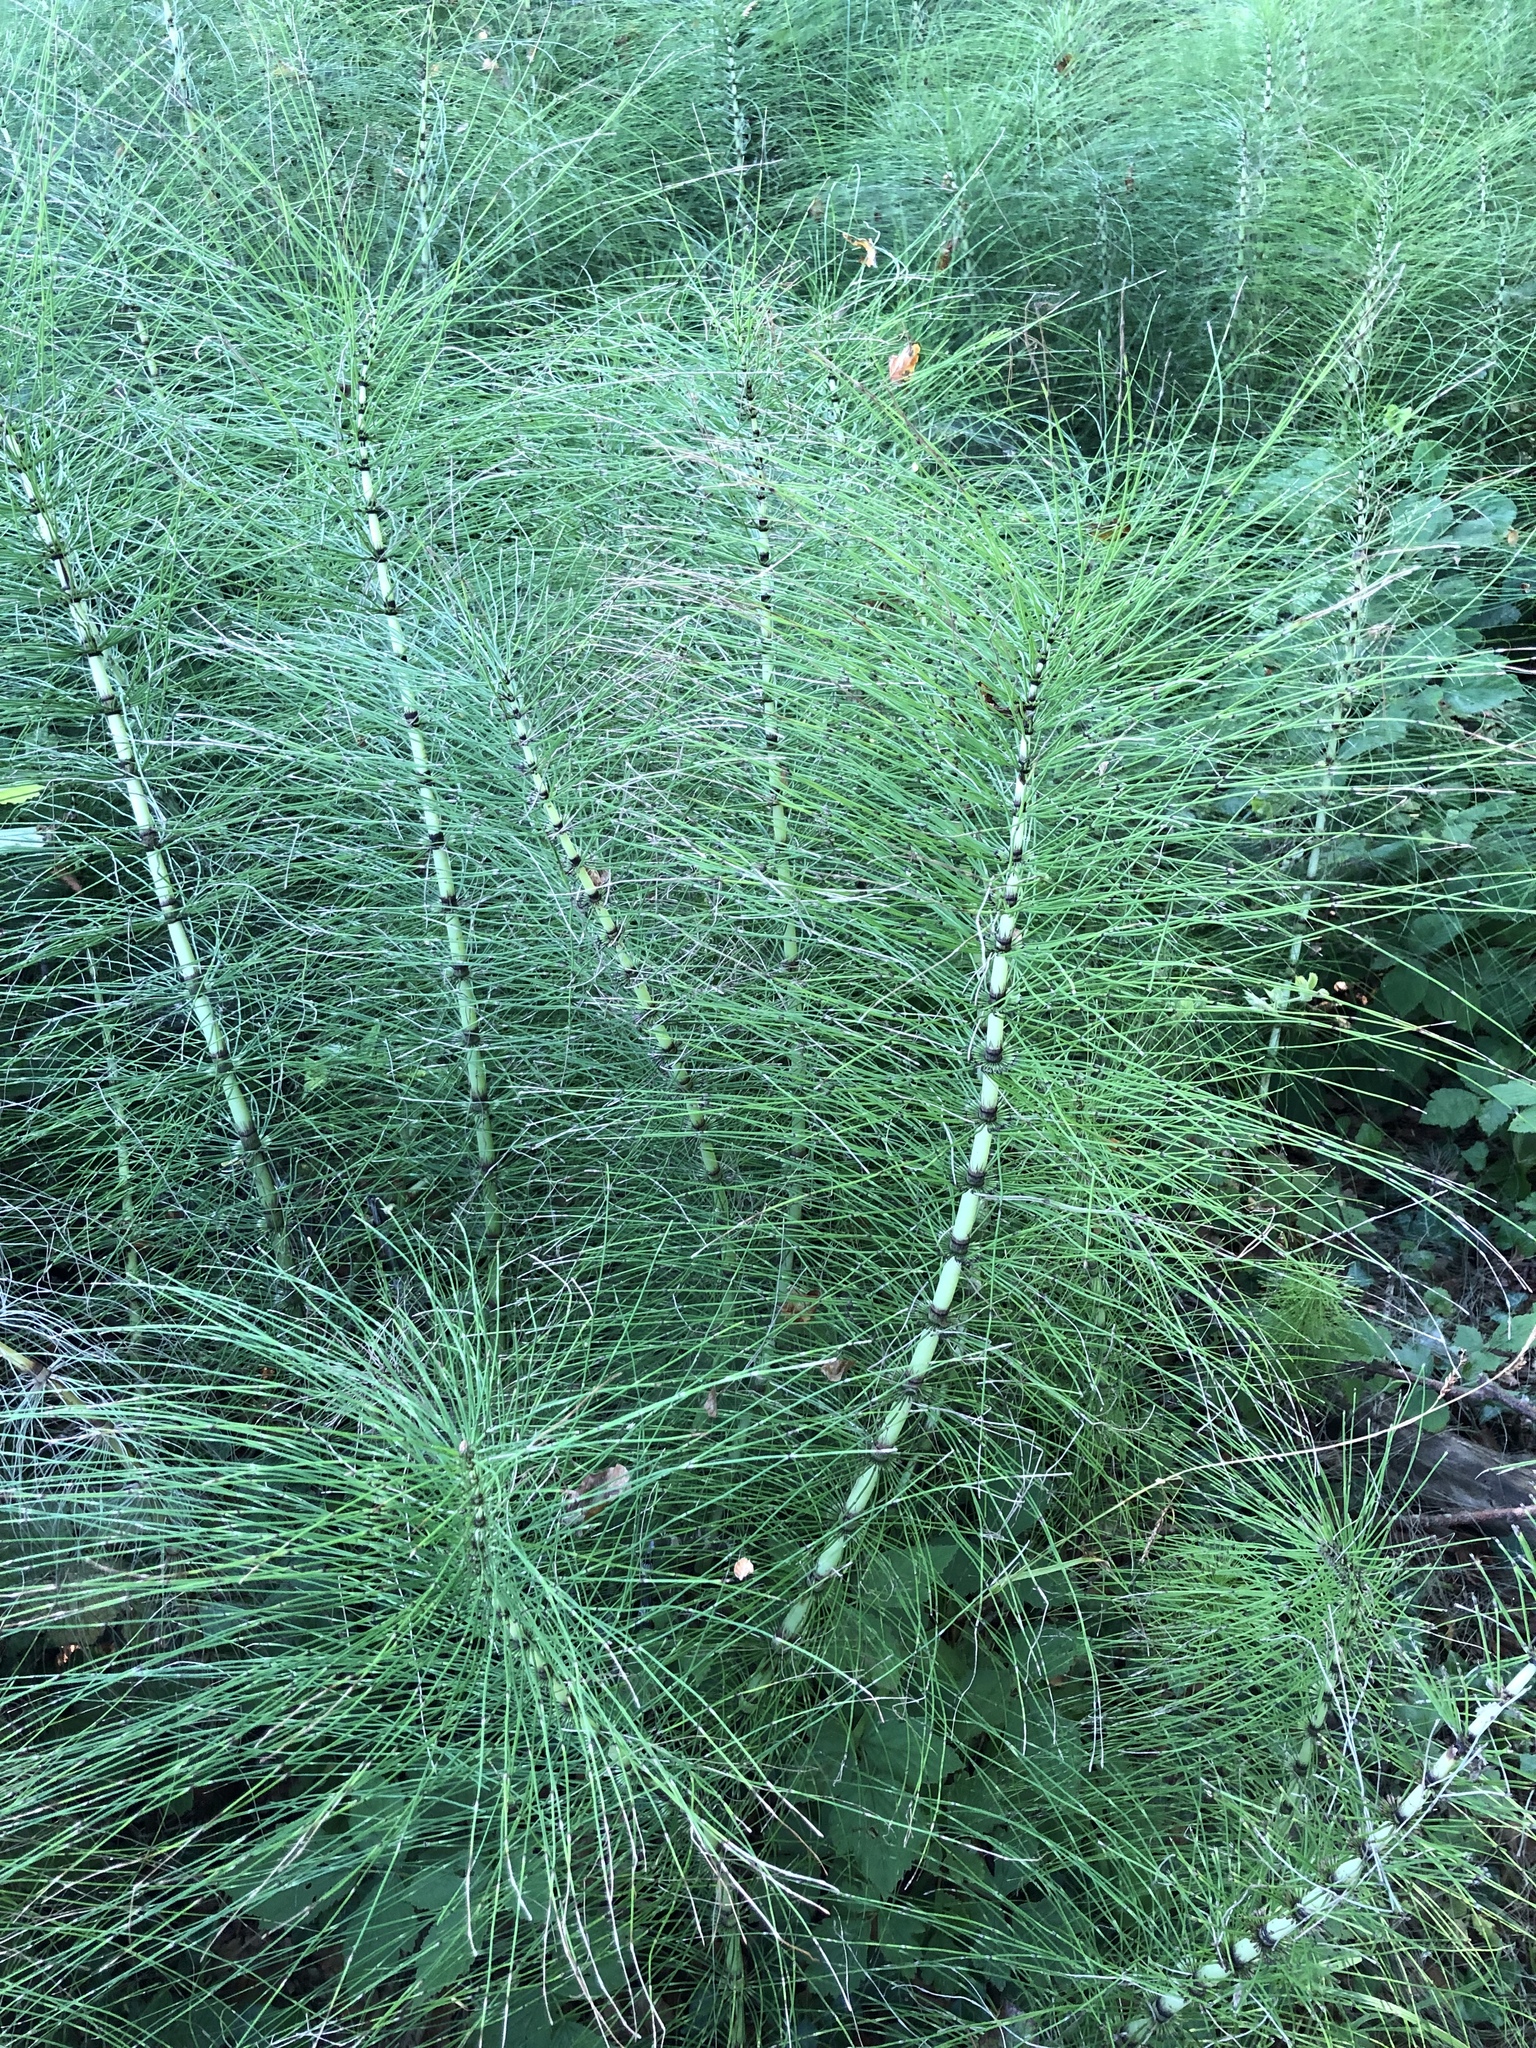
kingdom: Plantae
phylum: Tracheophyta
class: Polypodiopsida
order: Equisetales
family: Equisetaceae
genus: Equisetum
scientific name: Equisetum telmateia
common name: Great horsetail
